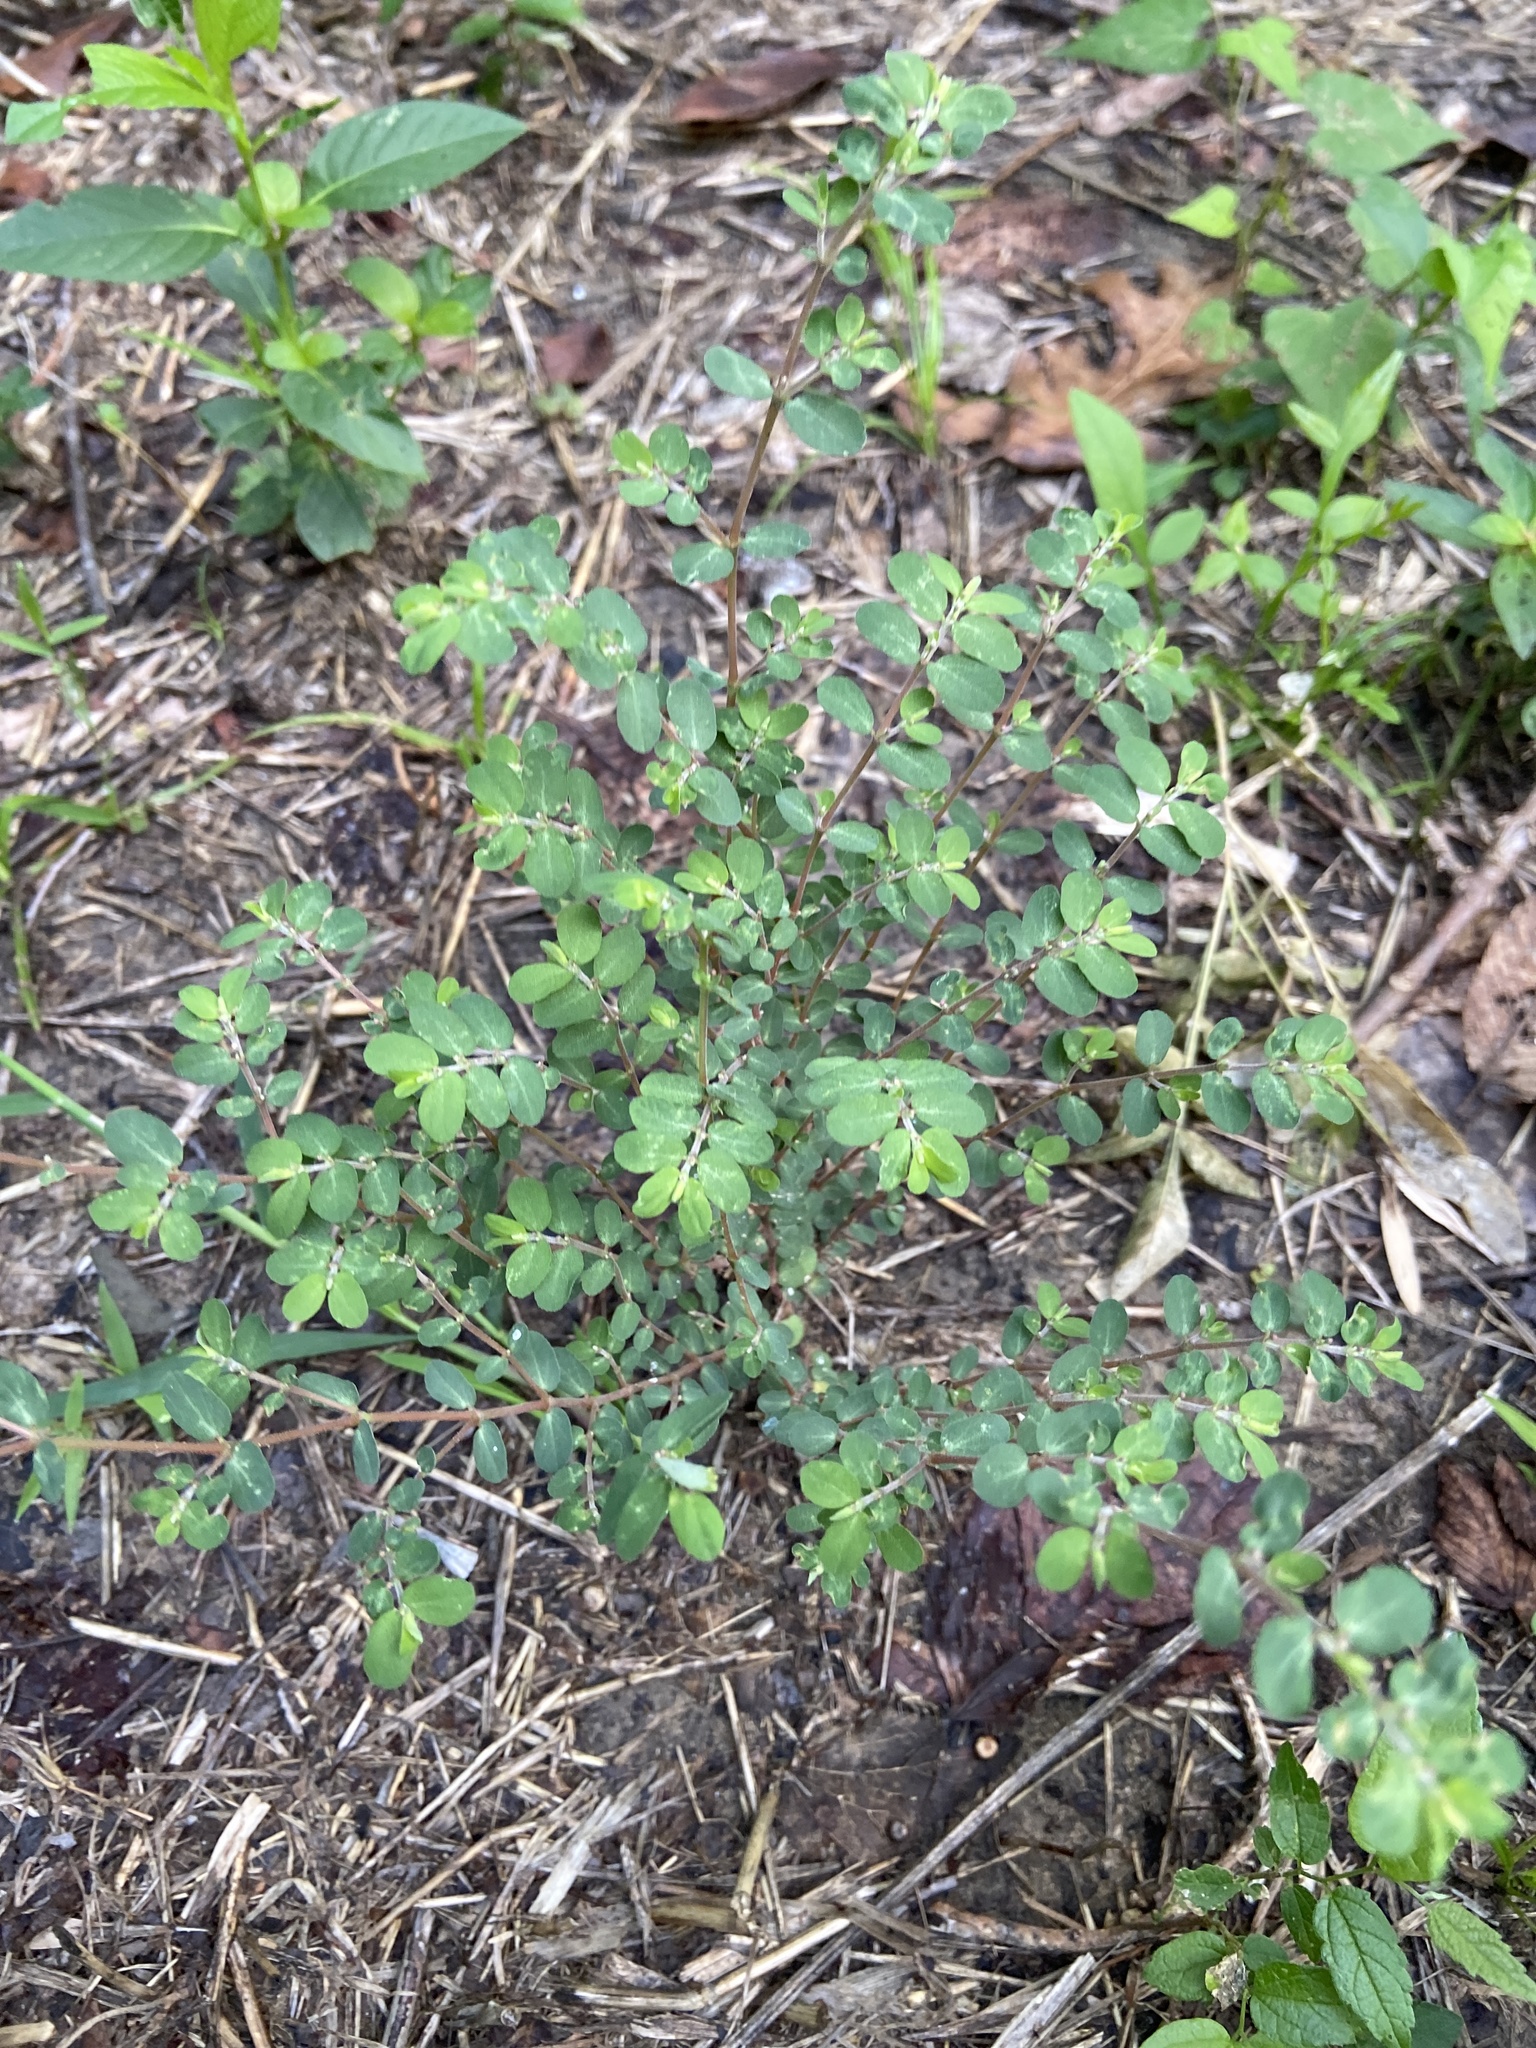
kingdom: Plantae
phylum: Tracheophyta
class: Magnoliopsida
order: Malpighiales
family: Euphorbiaceae
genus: Euphorbia
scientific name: Euphorbia prostrata
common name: Prostrate sandmat
